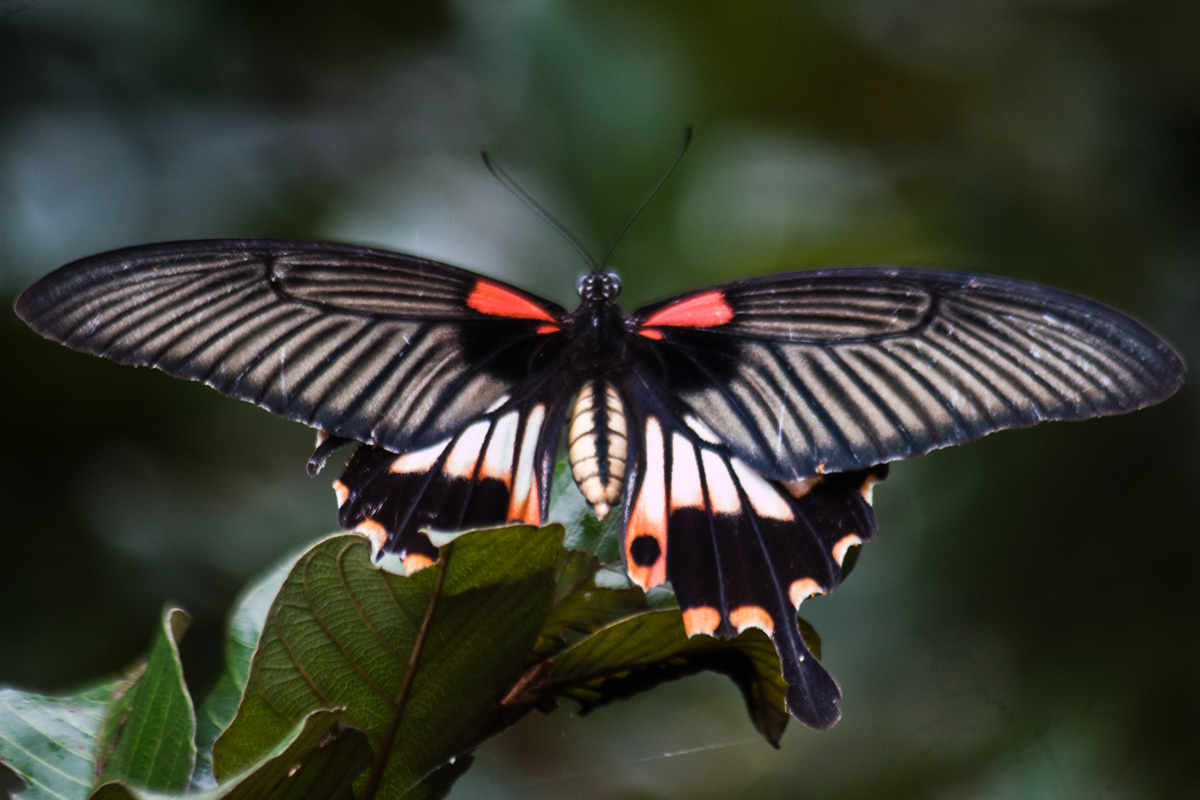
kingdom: Animalia
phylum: Arthropoda
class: Insecta
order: Lepidoptera
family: Papilionidae
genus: Papilio
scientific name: Papilio memnon
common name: Great mormon
